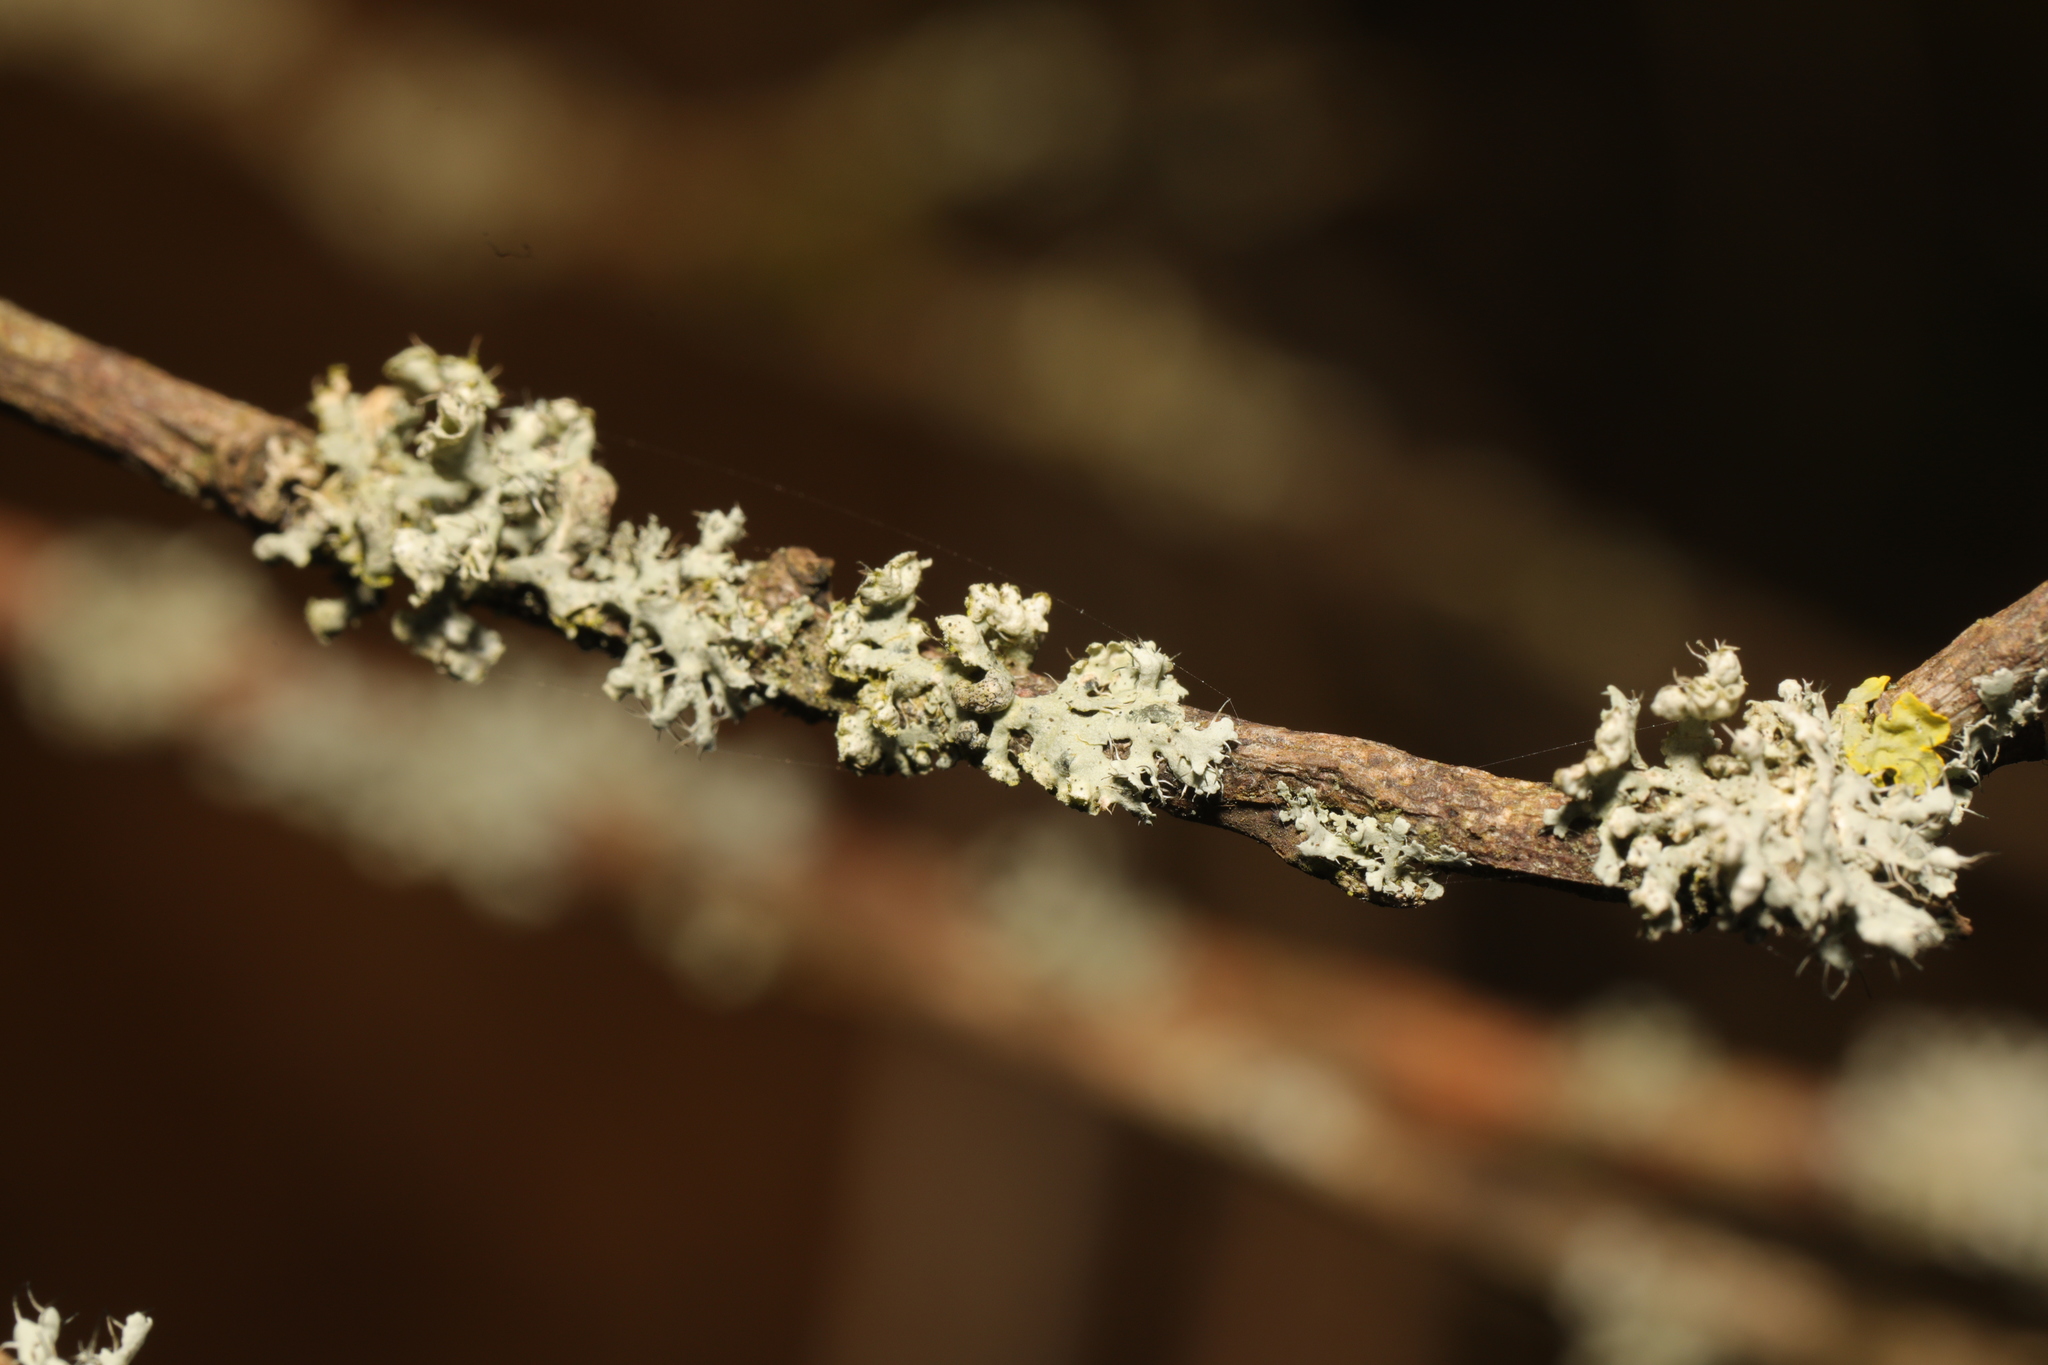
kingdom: Fungi
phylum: Ascomycota
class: Lecanoromycetes
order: Caliciales
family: Physciaceae
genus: Physcia
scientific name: Physcia adscendens
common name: Hooded rosette lichen
